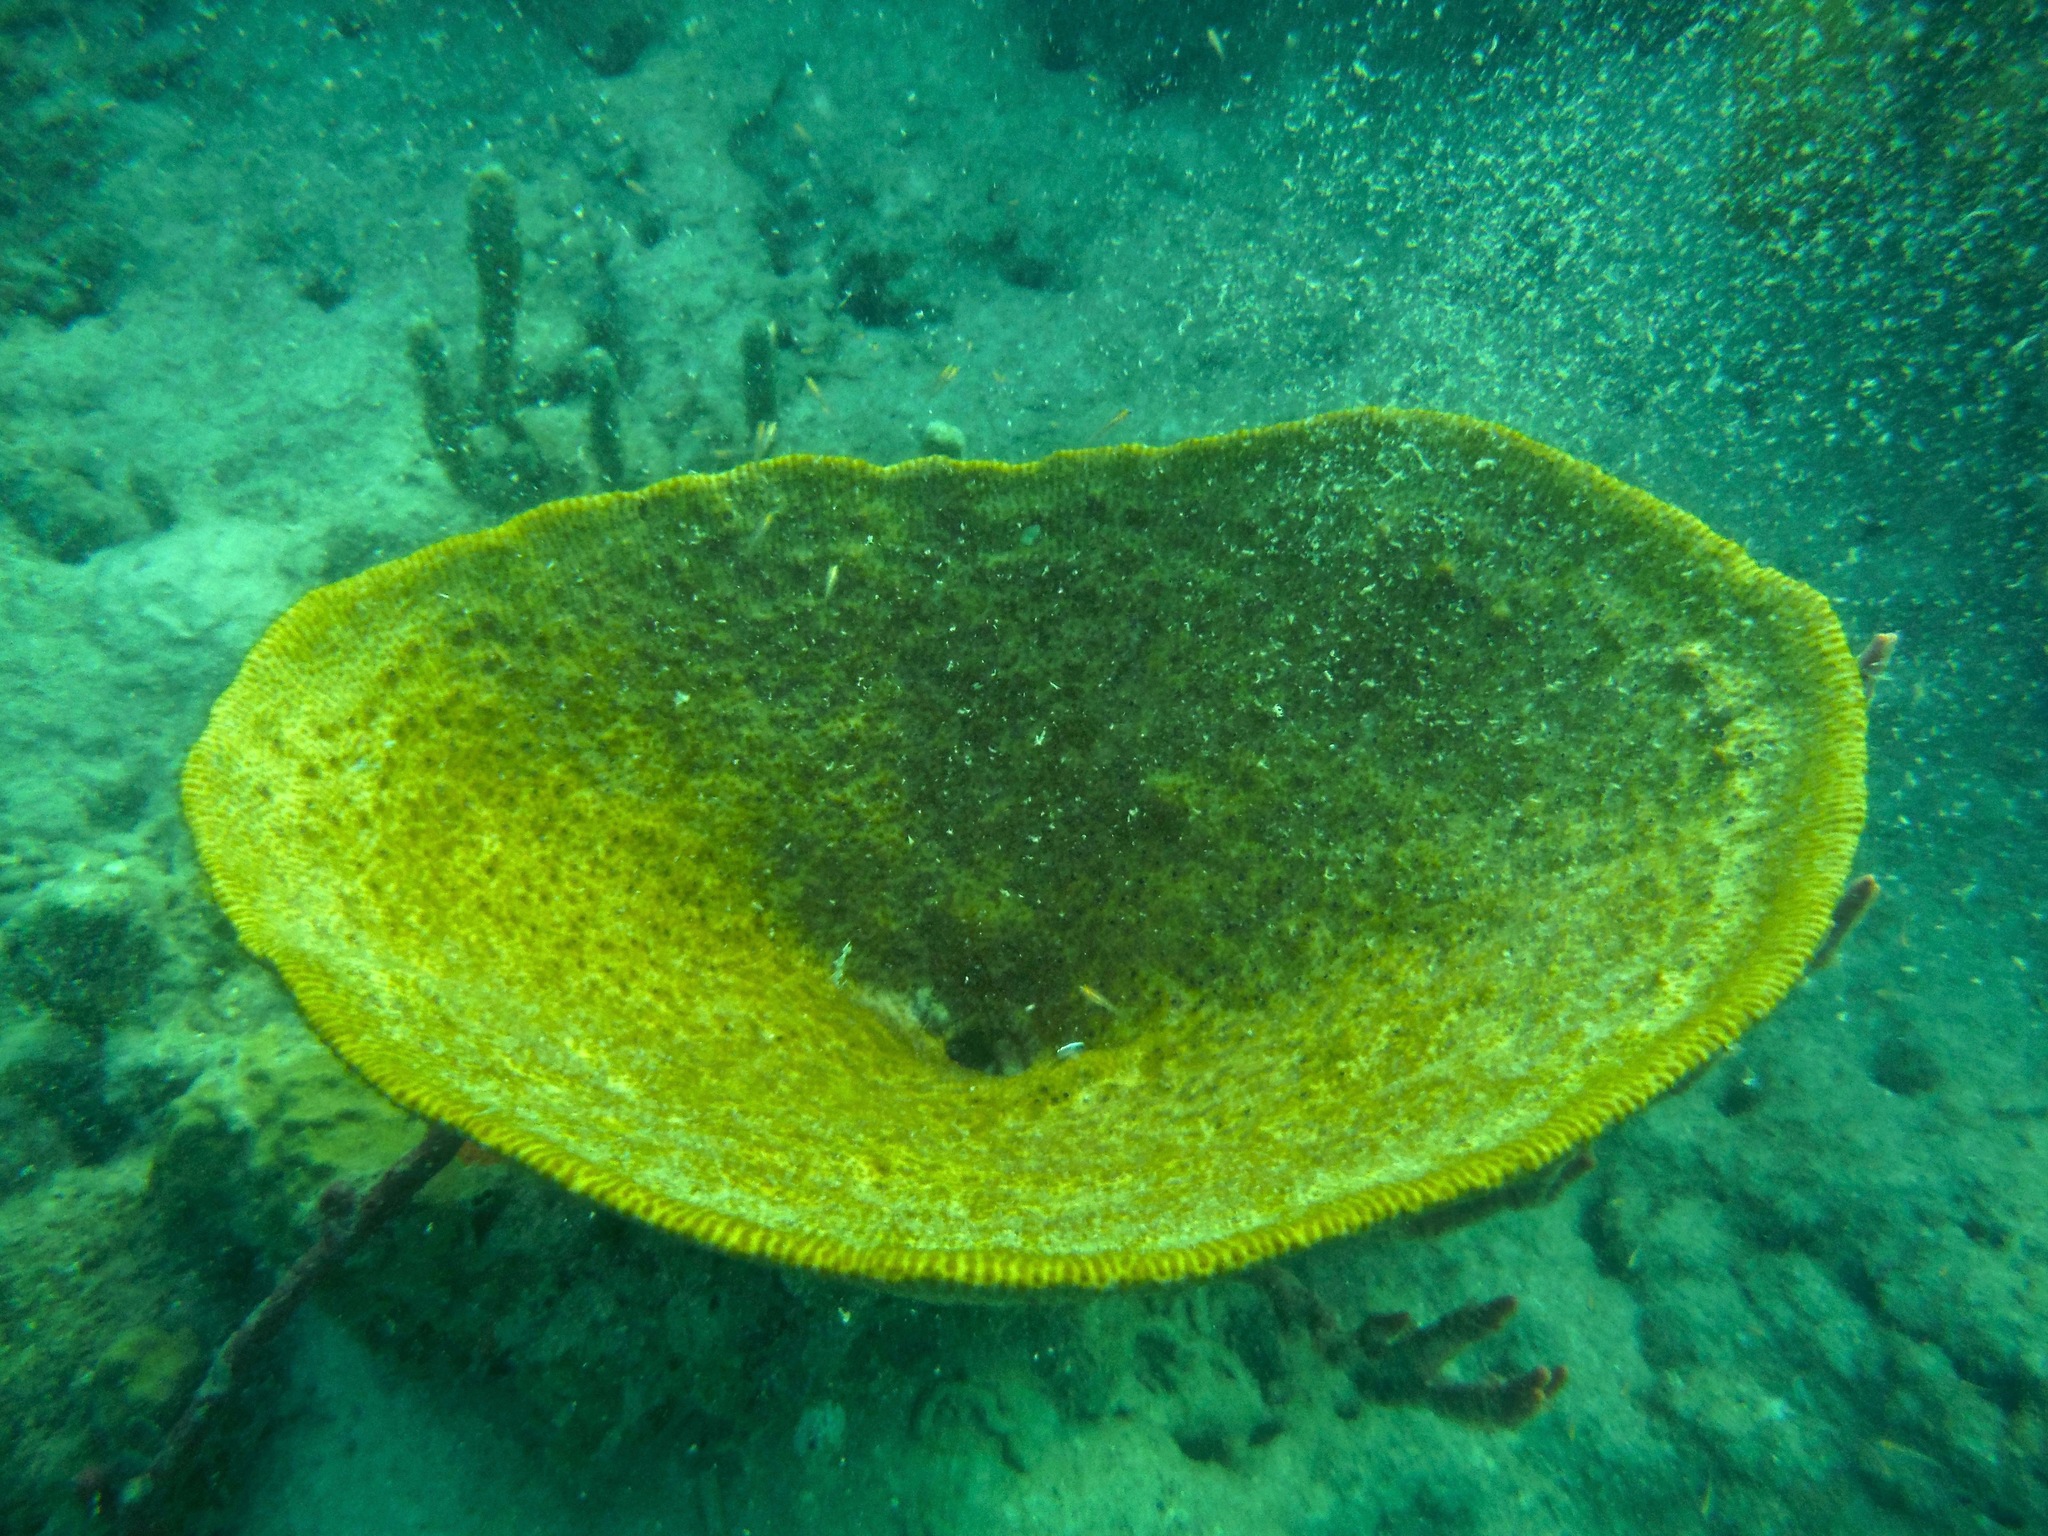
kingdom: Animalia
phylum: Porifera
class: Demospongiae
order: Dictyoceratida
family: Irciniidae
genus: Ircinia
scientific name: Ircinia campana
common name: Vase sponge
